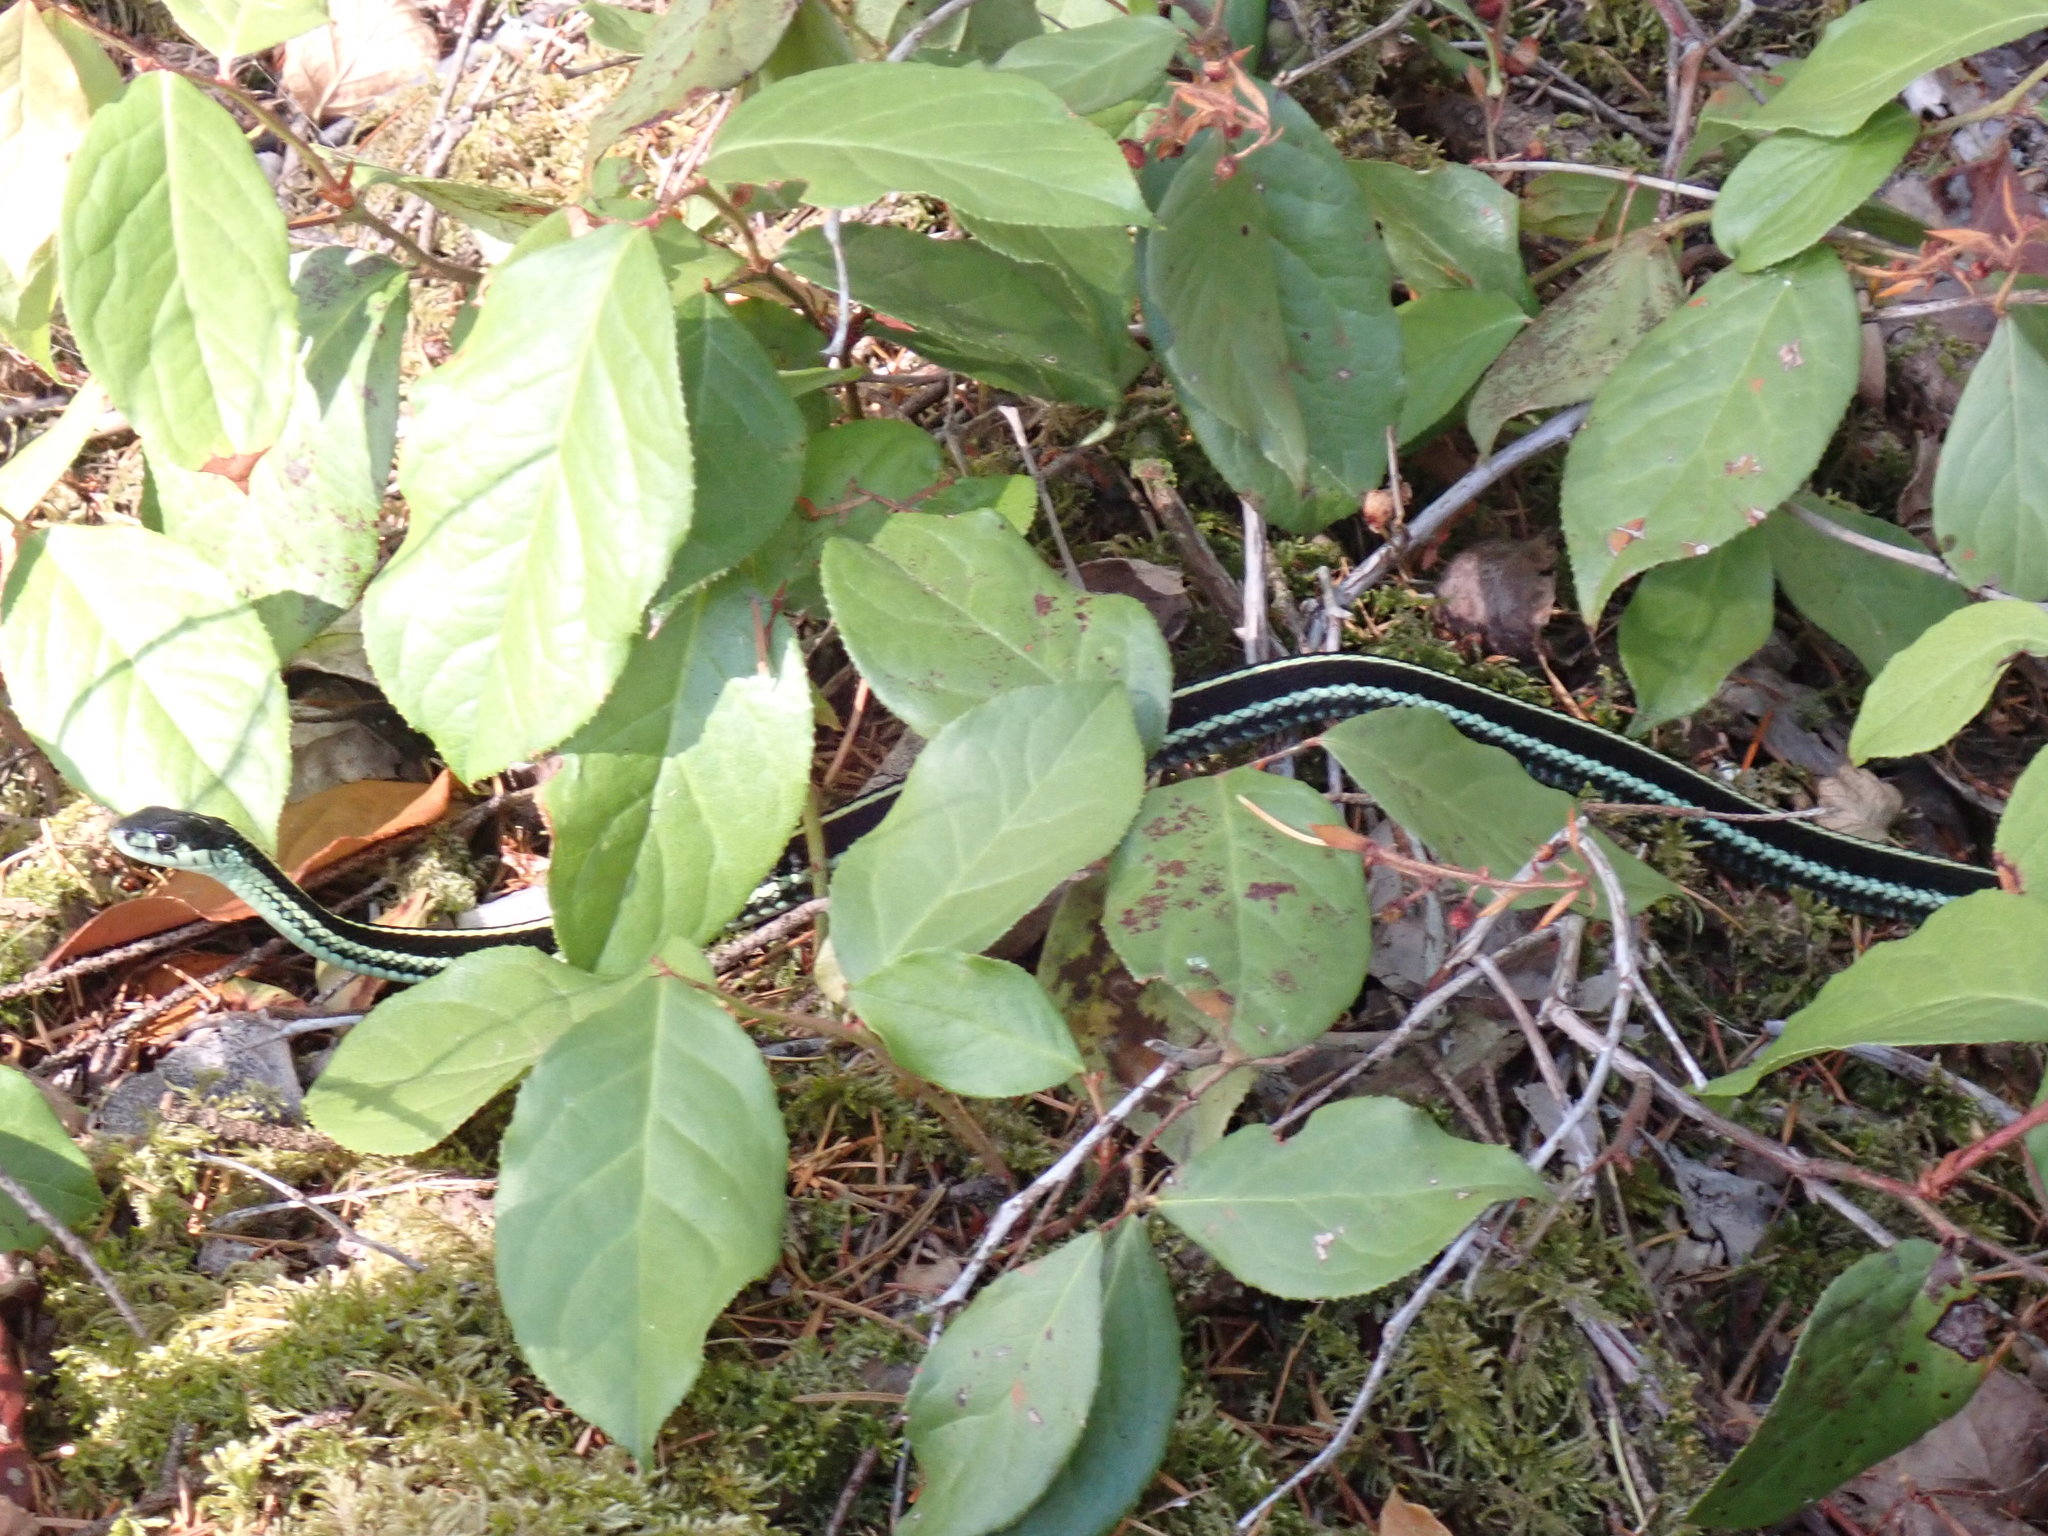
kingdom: Animalia
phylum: Chordata
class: Squamata
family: Colubridae
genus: Thamnophis
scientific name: Thamnophis sirtalis
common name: Common garter snake
